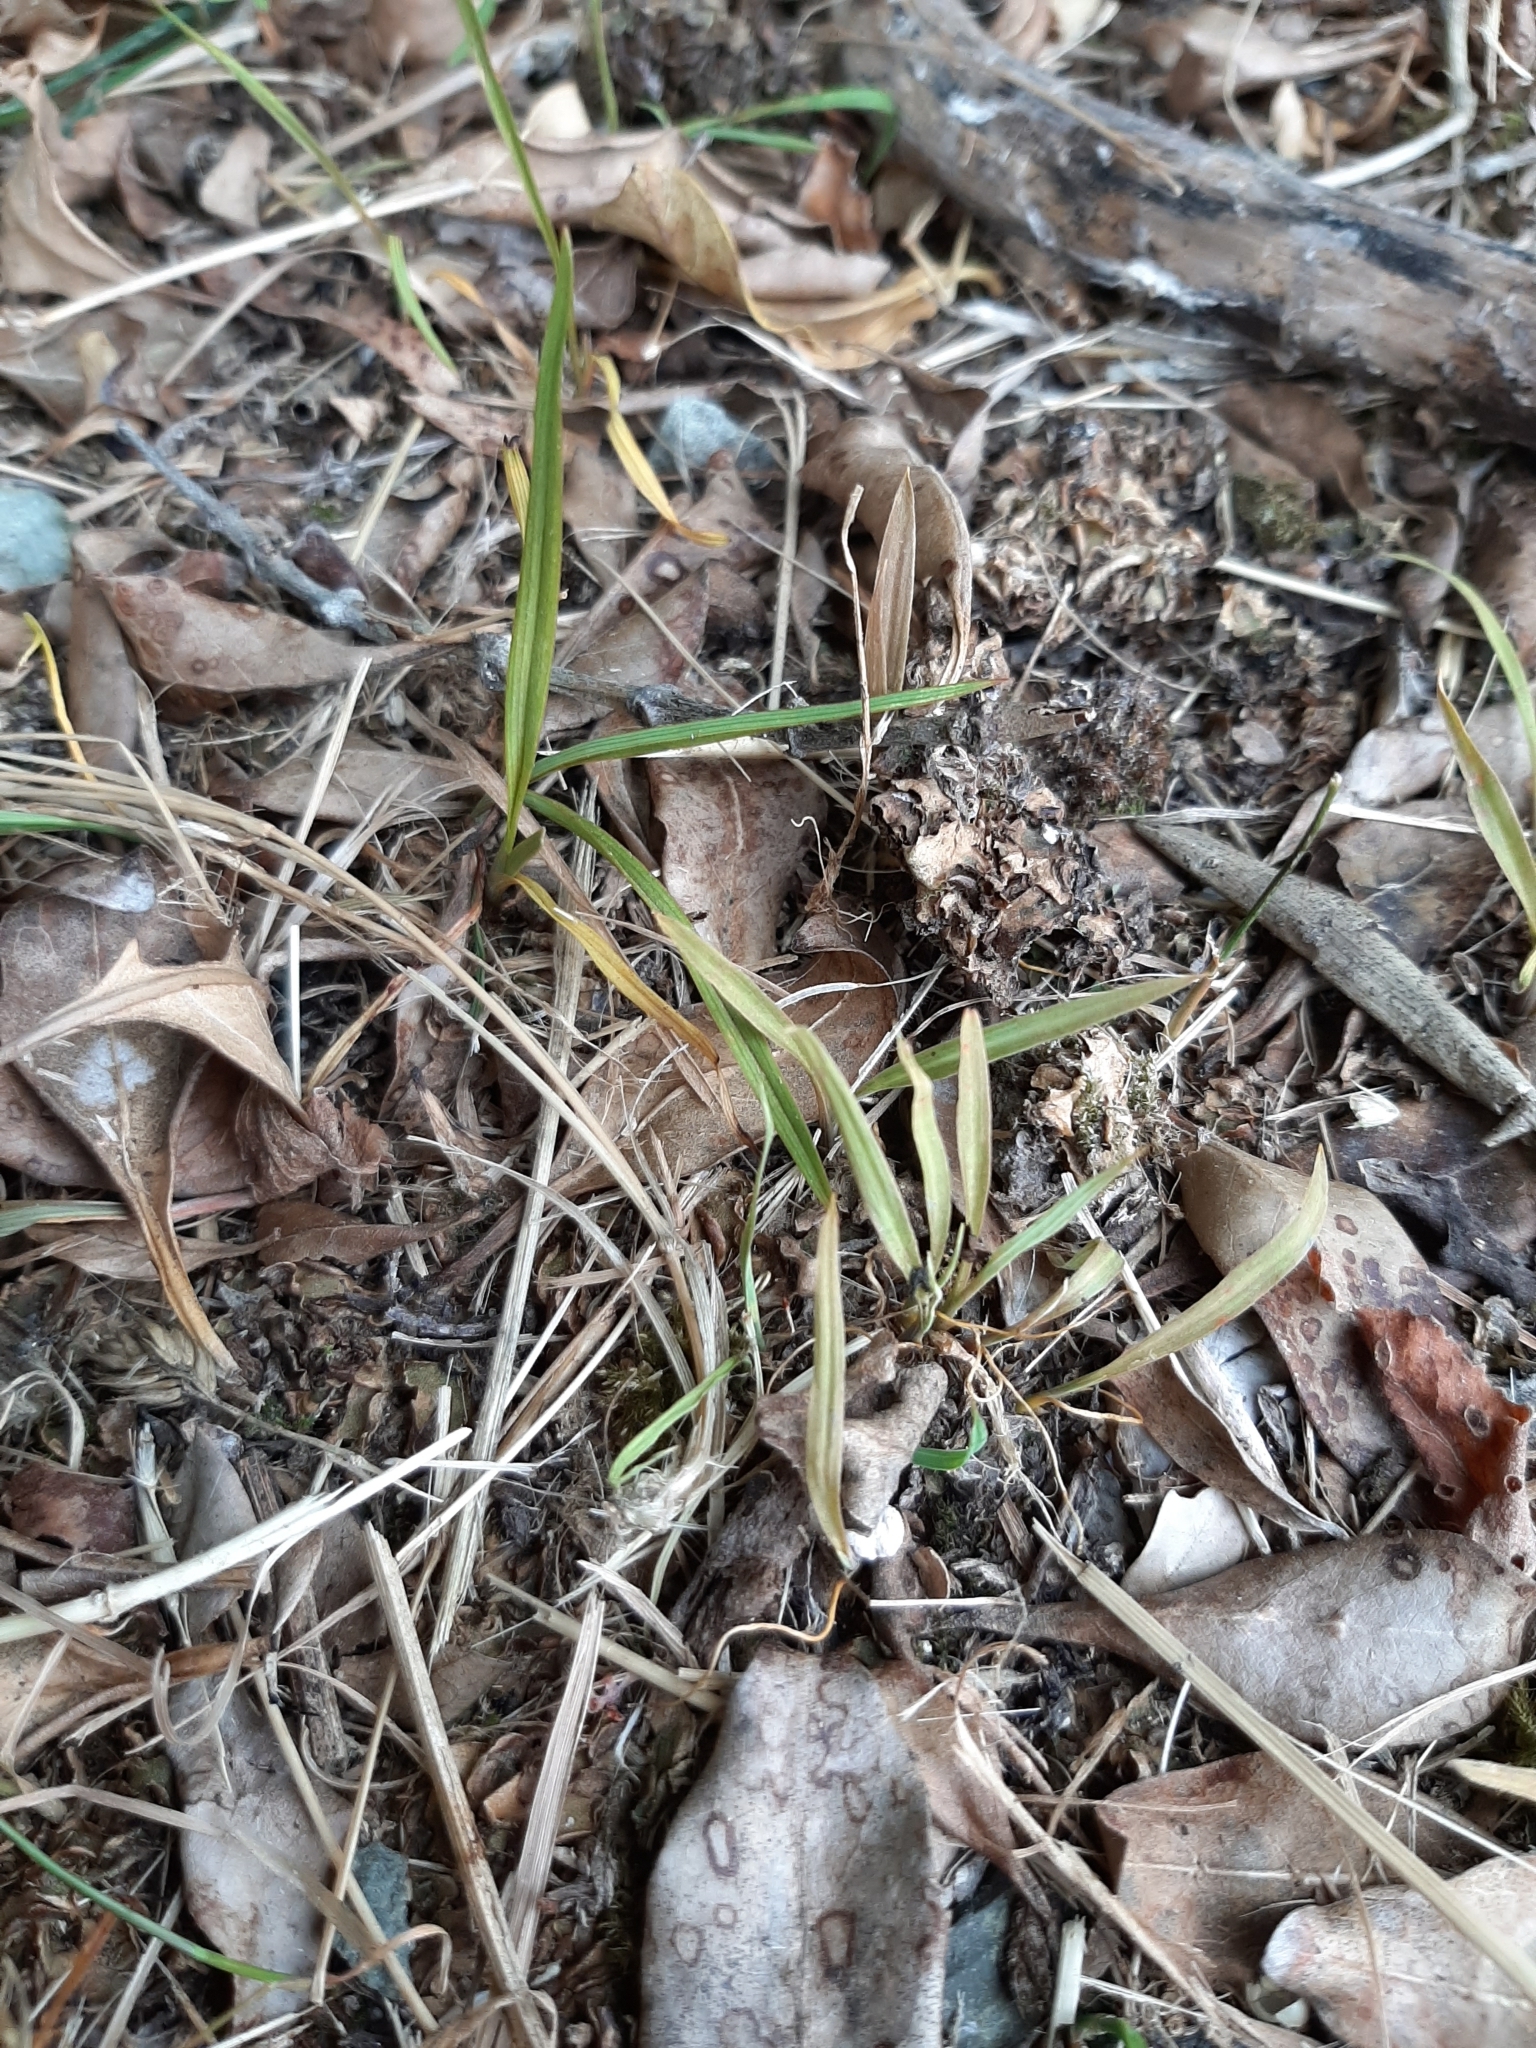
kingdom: Plantae
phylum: Tracheophyta
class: Liliopsida
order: Asparagales
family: Asparagaceae
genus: Cordyline
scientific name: Cordyline australis
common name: Cabbage-palm
